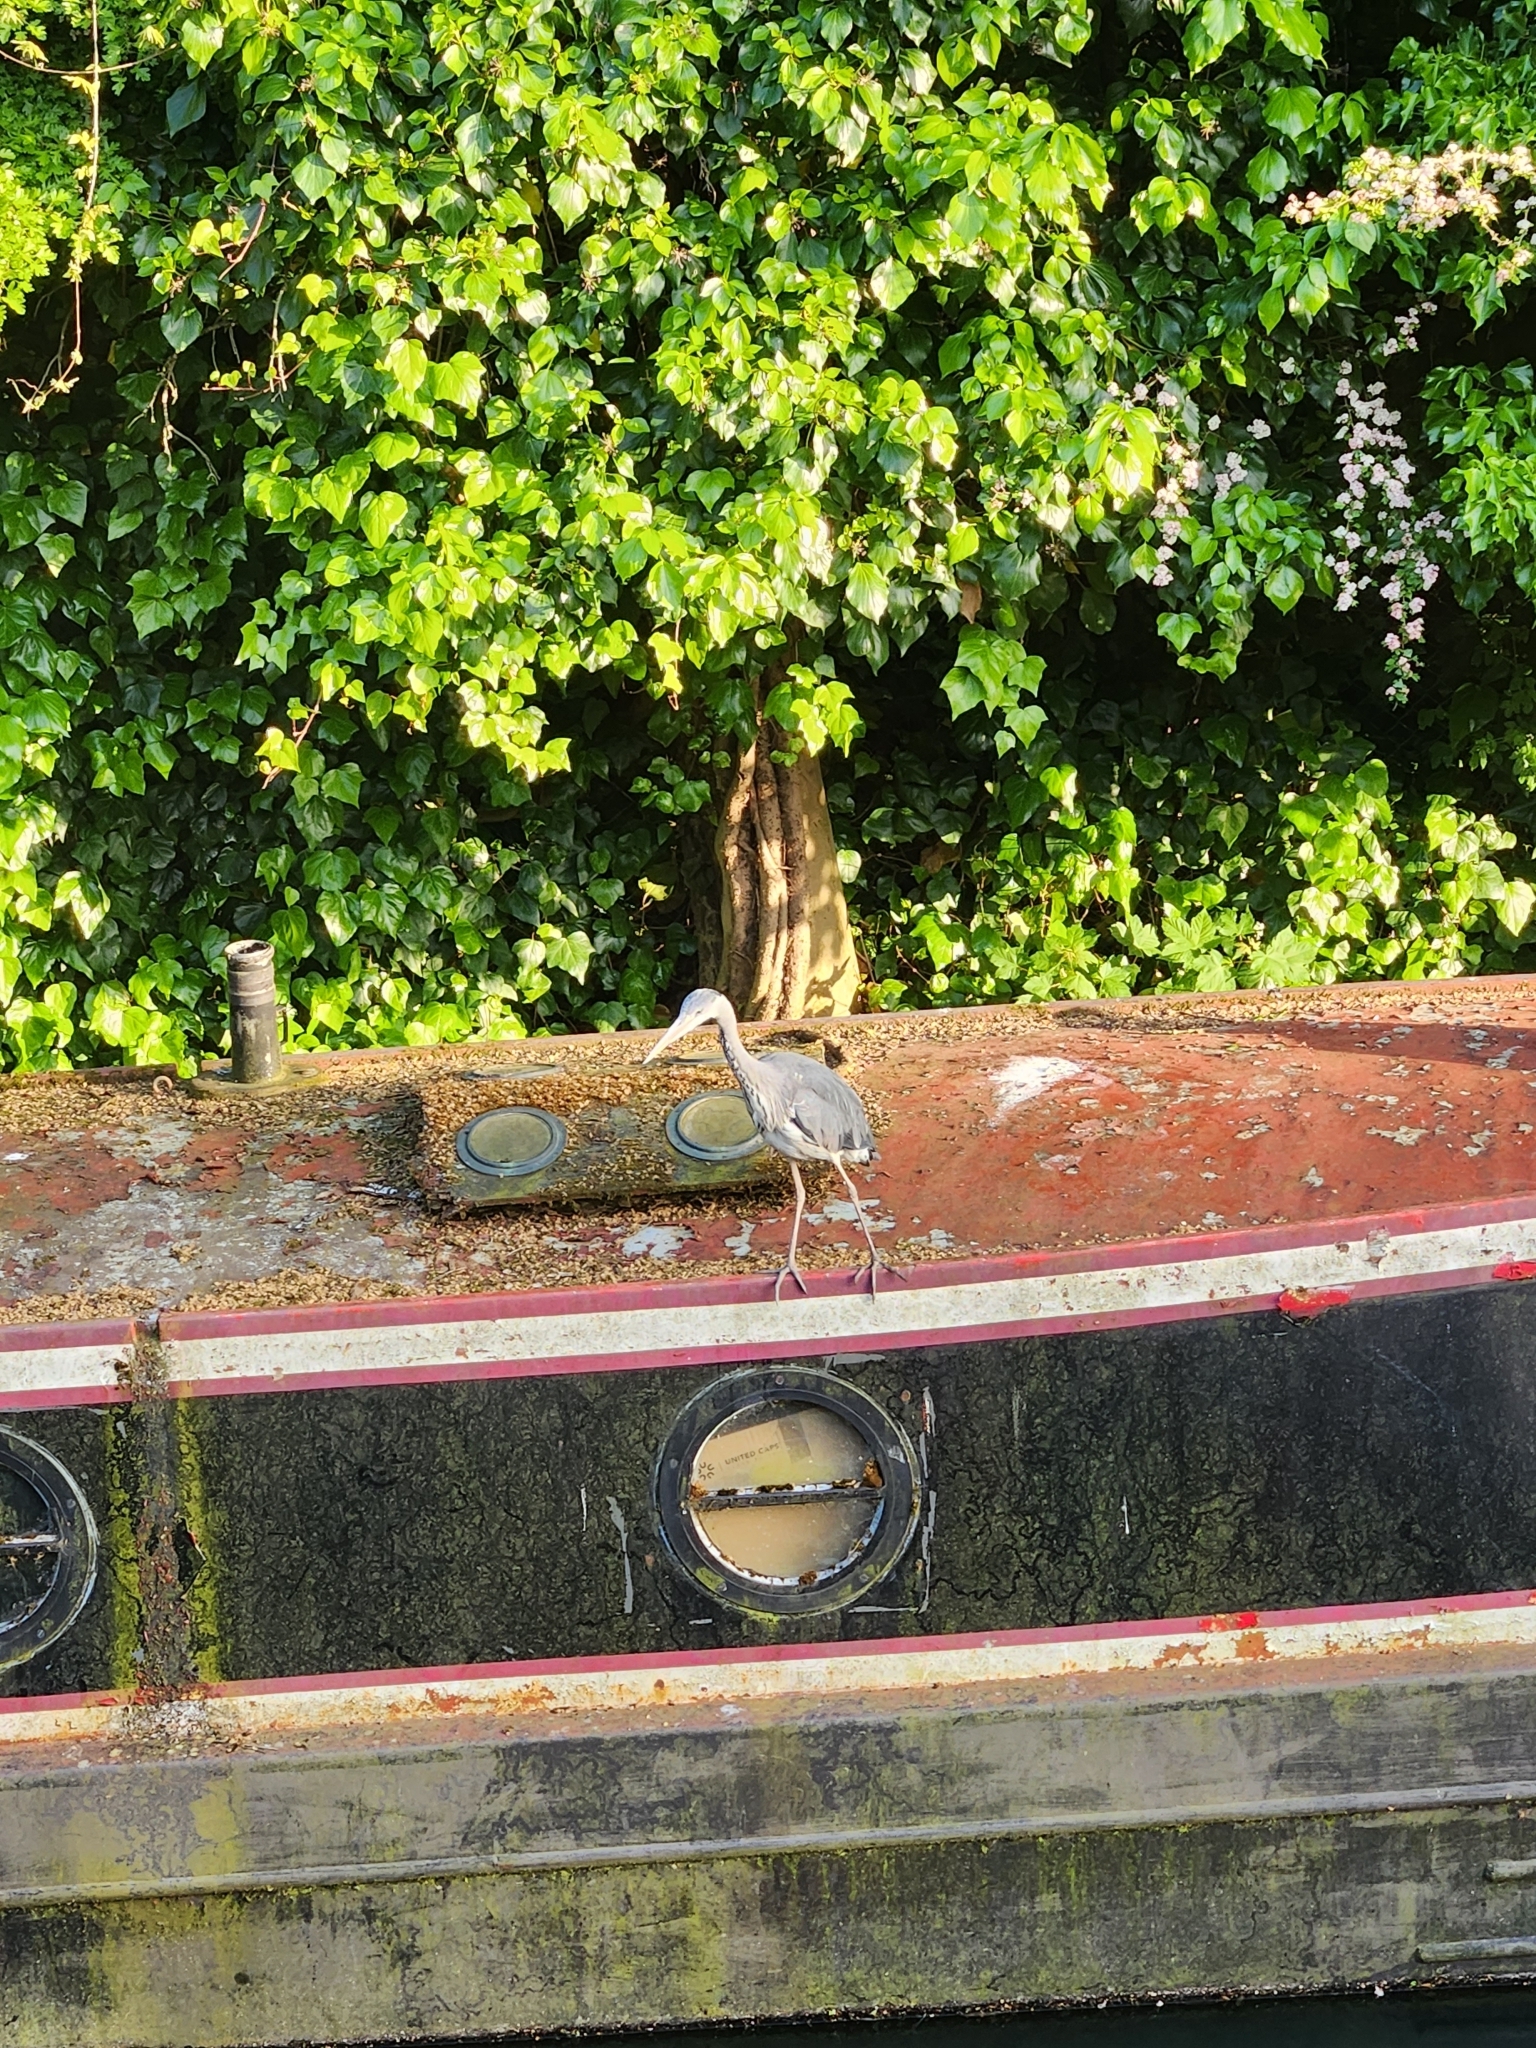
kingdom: Animalia
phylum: Chordata
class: Aves
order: Pelecaniformes
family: Ardeidae
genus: Ardea
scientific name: Ardea cinerea
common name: Grey heron
